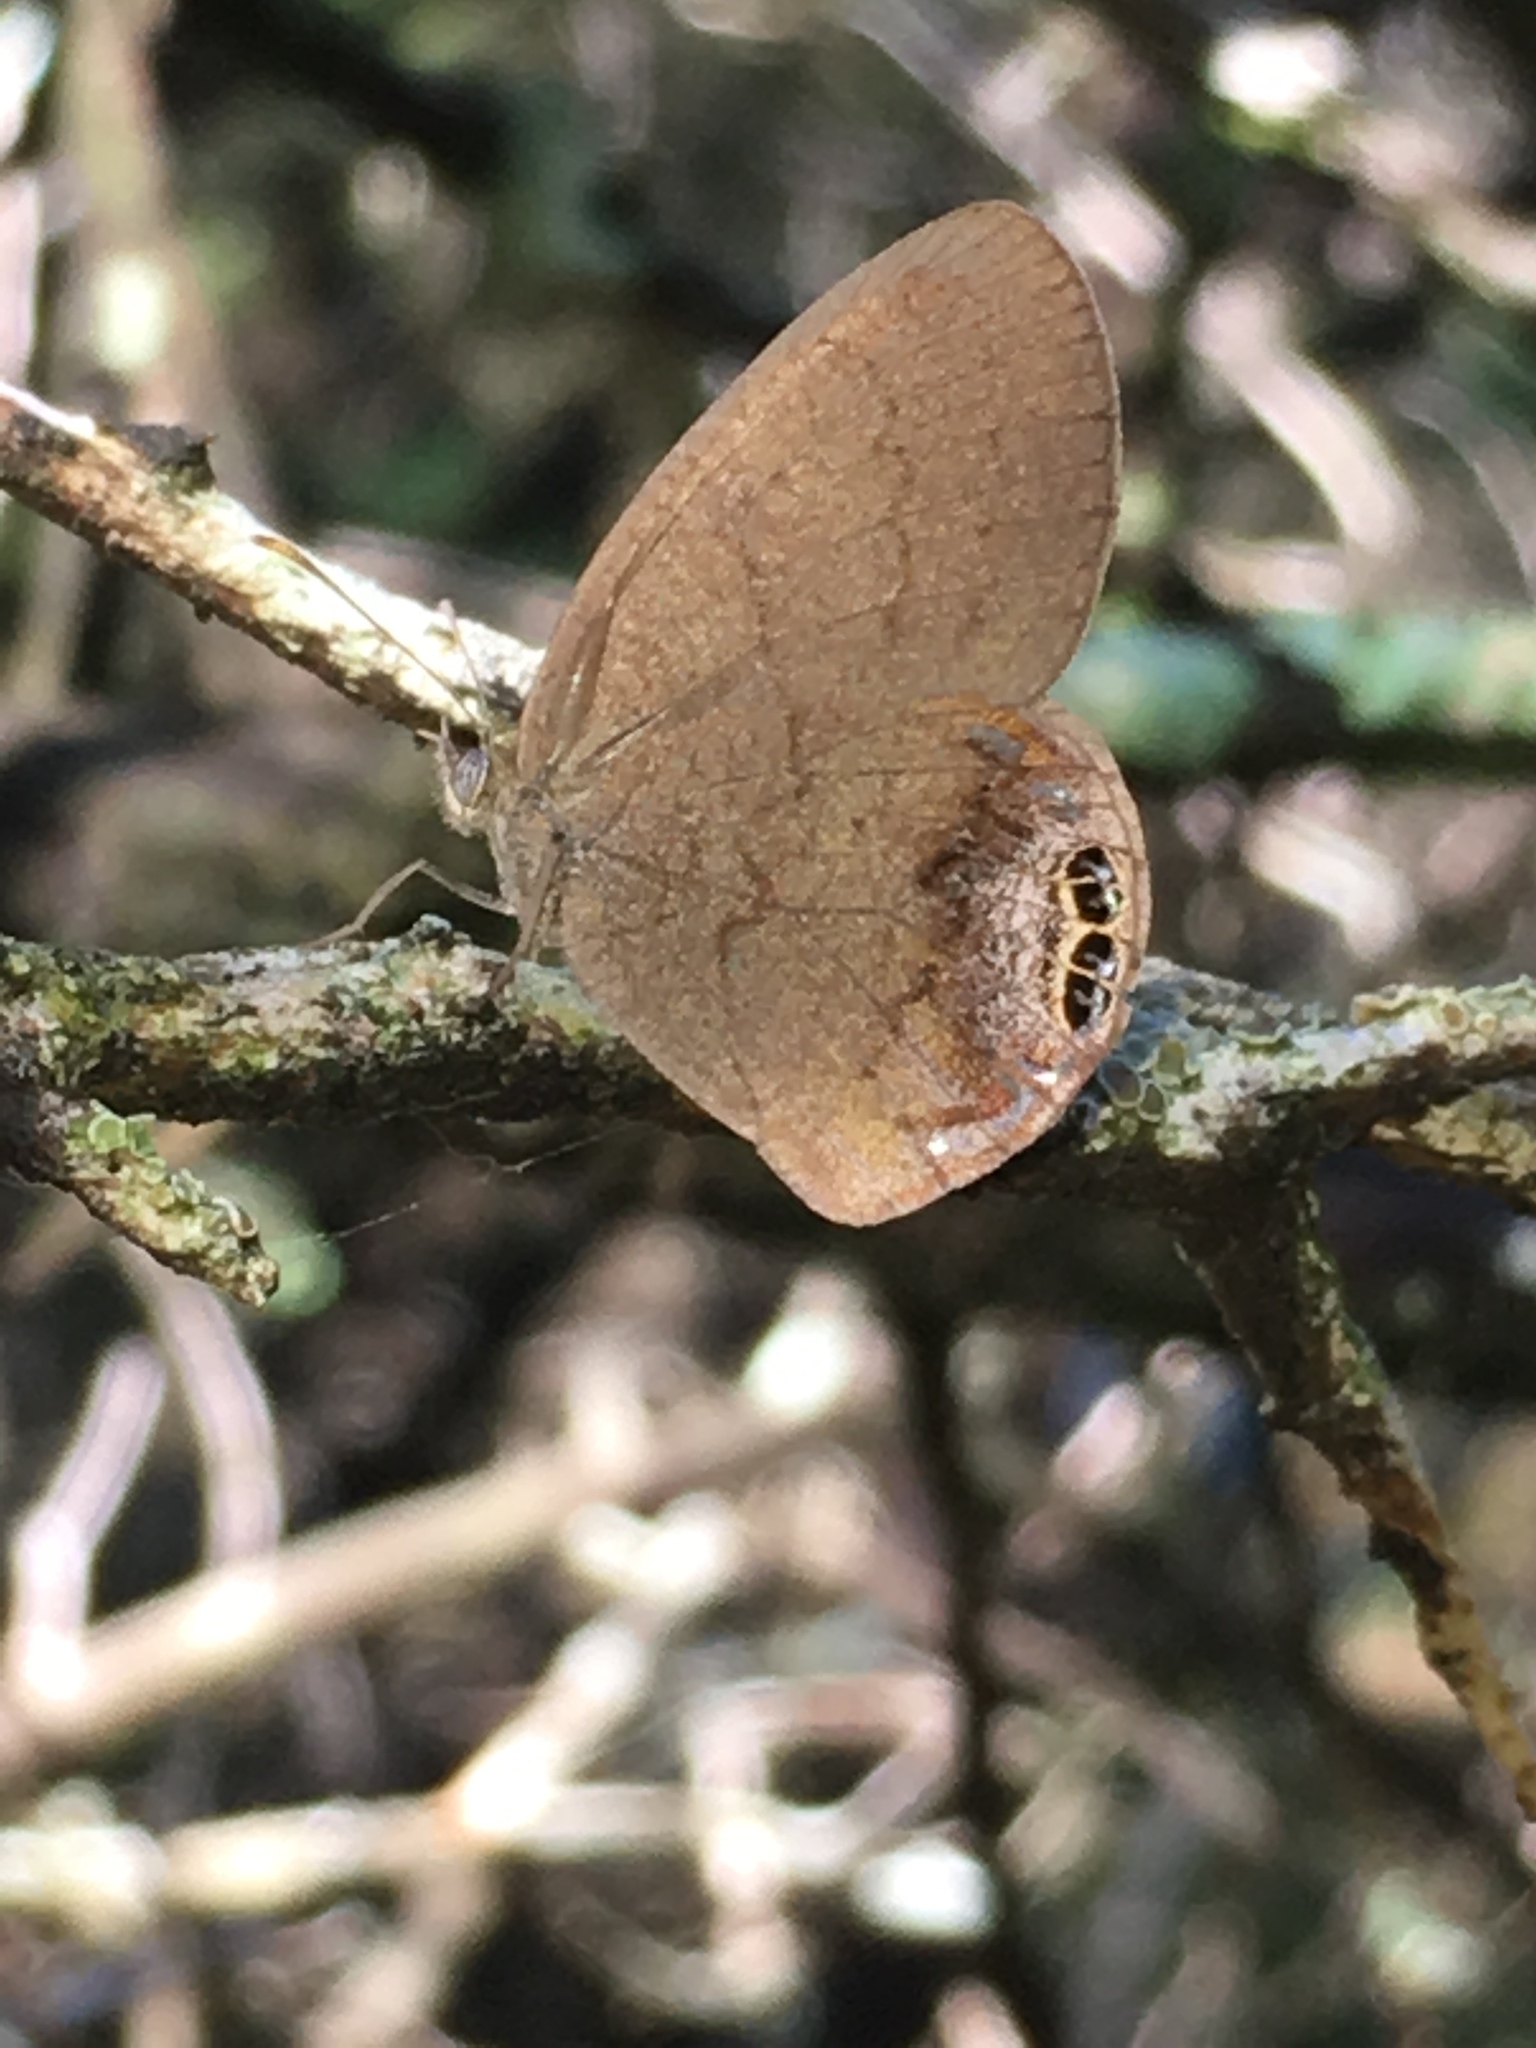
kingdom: Animalia
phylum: Arthropoda
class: Insecta
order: Lepidoptera
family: Nymphalidae
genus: Euptychia
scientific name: Euptychia cornelius
